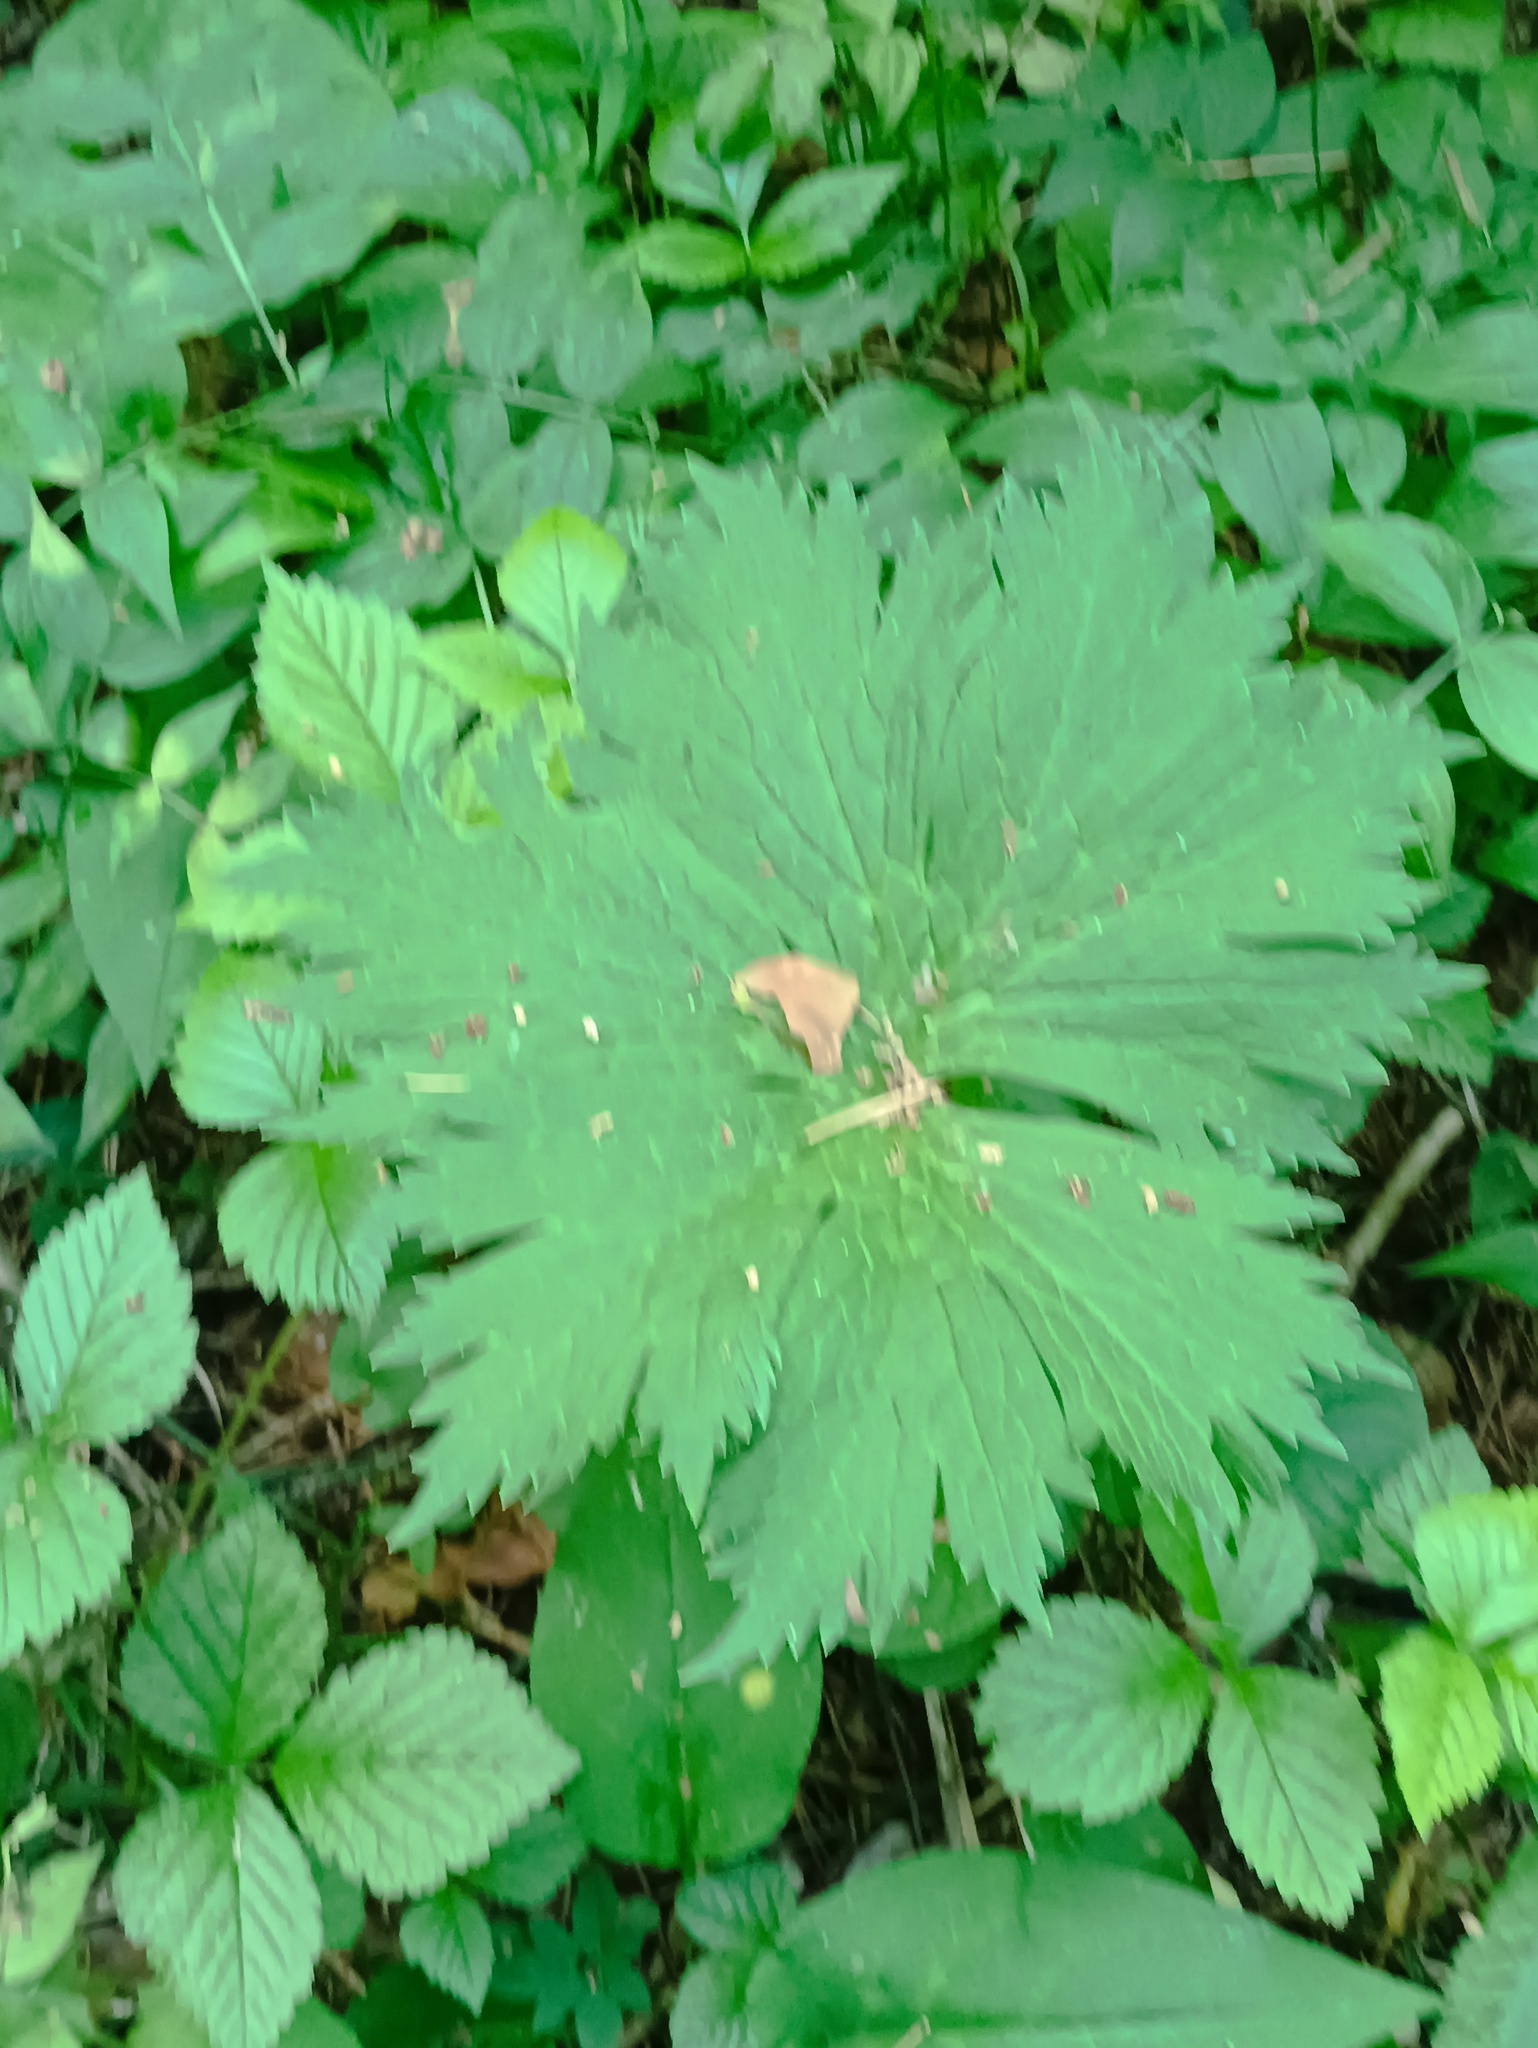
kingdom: Plantae
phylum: Tracheophyta
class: Magnoliopsida
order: Ranunculales
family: Ranunculaceae
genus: Aconitum
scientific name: Aconitum septentrionale
